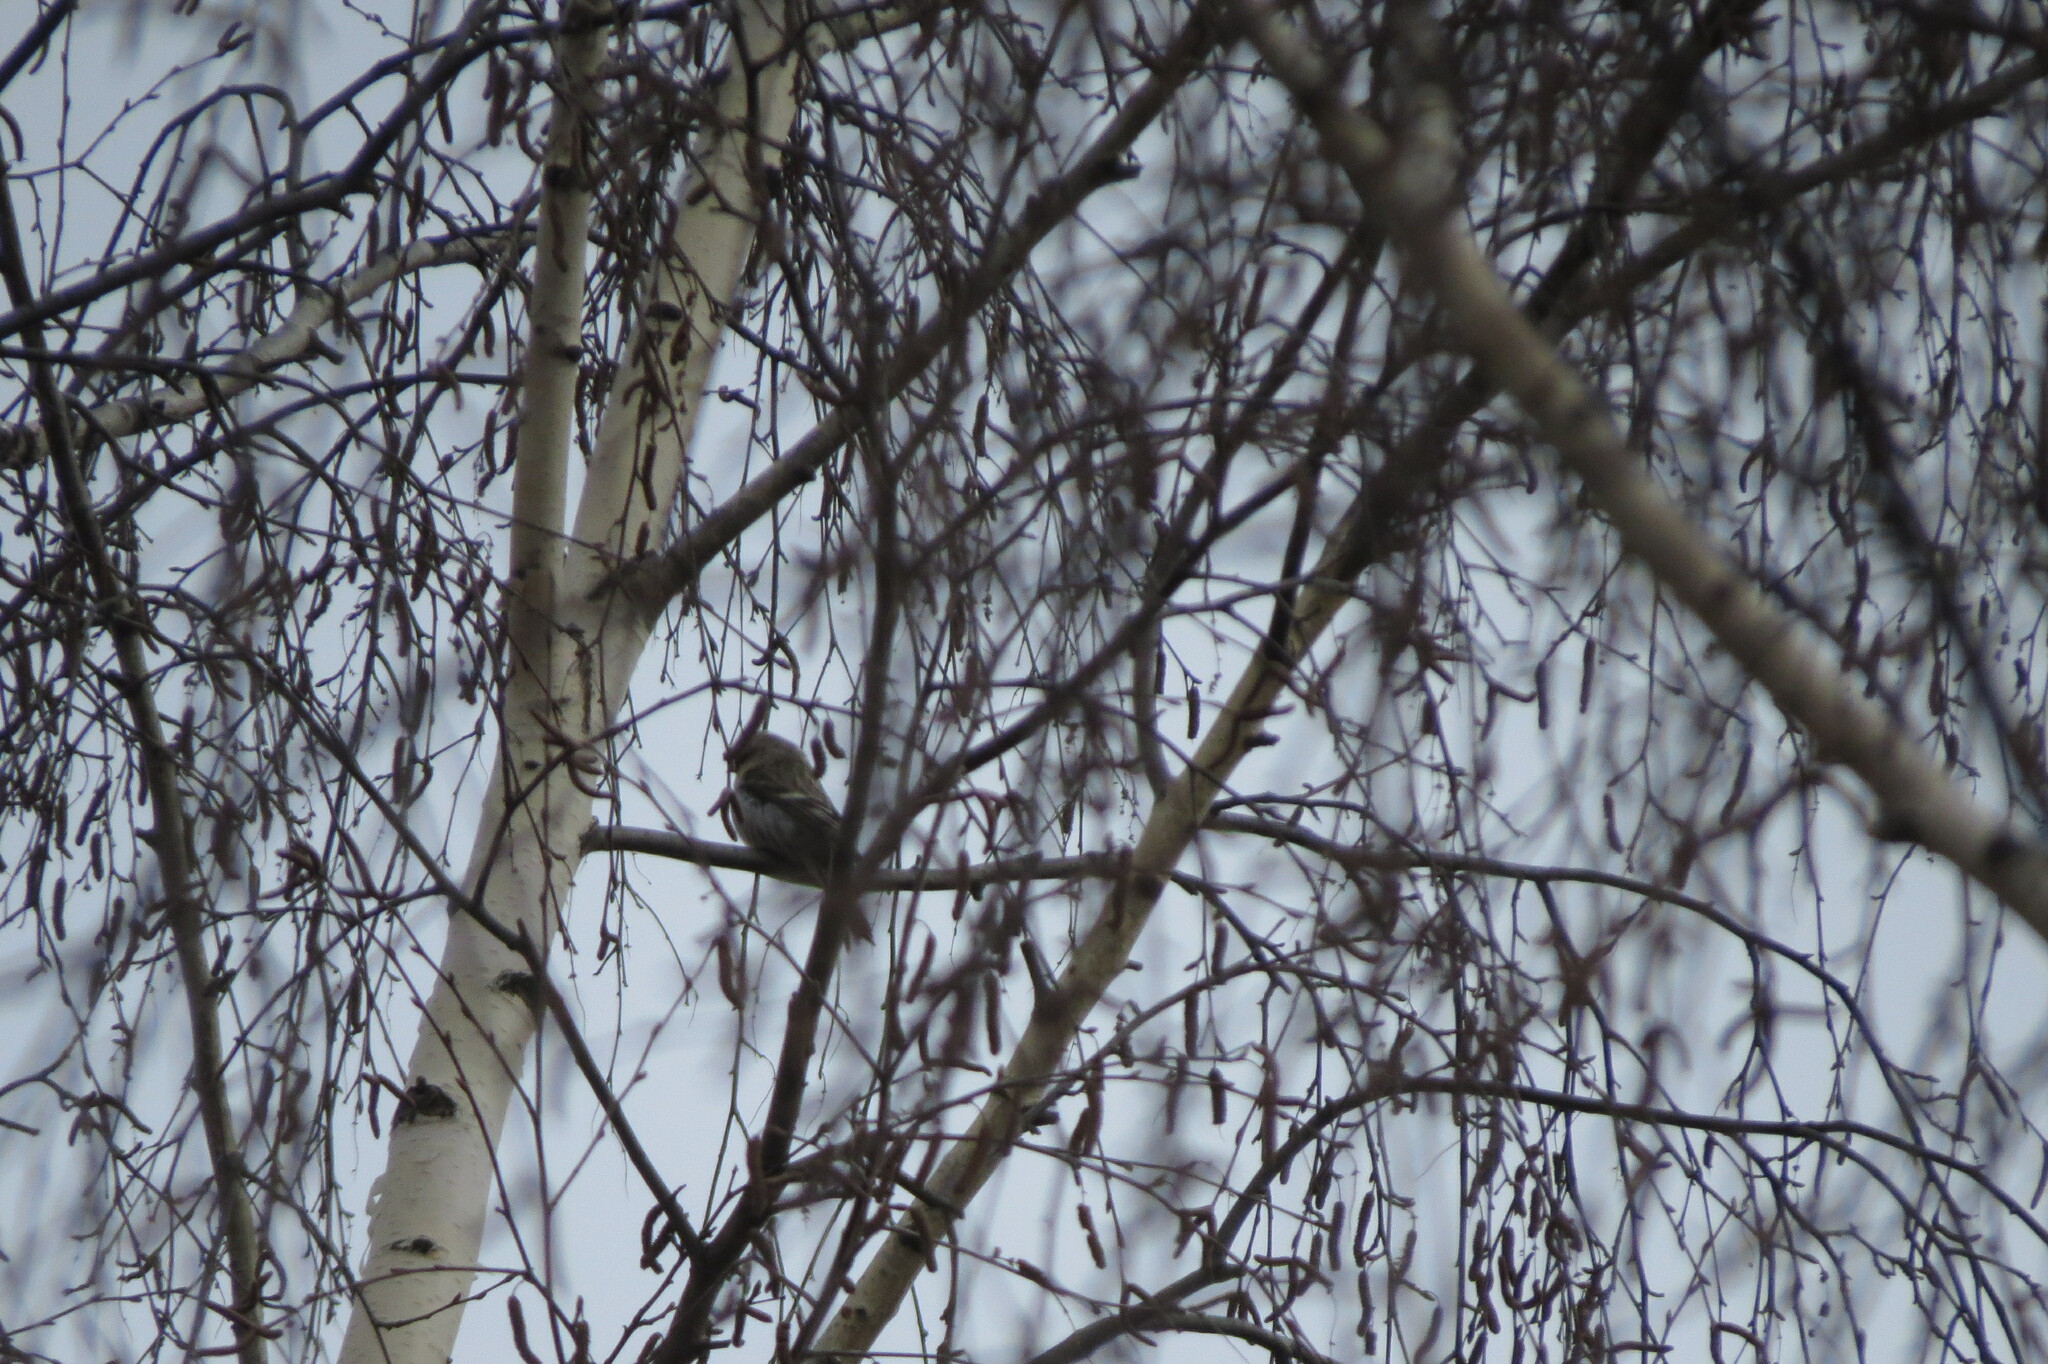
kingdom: Animalia
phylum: Chordata
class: Aves
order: Passeriformes
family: Fringillidae
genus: Acanthis
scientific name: Acanthis flammea
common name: Common redpoll
